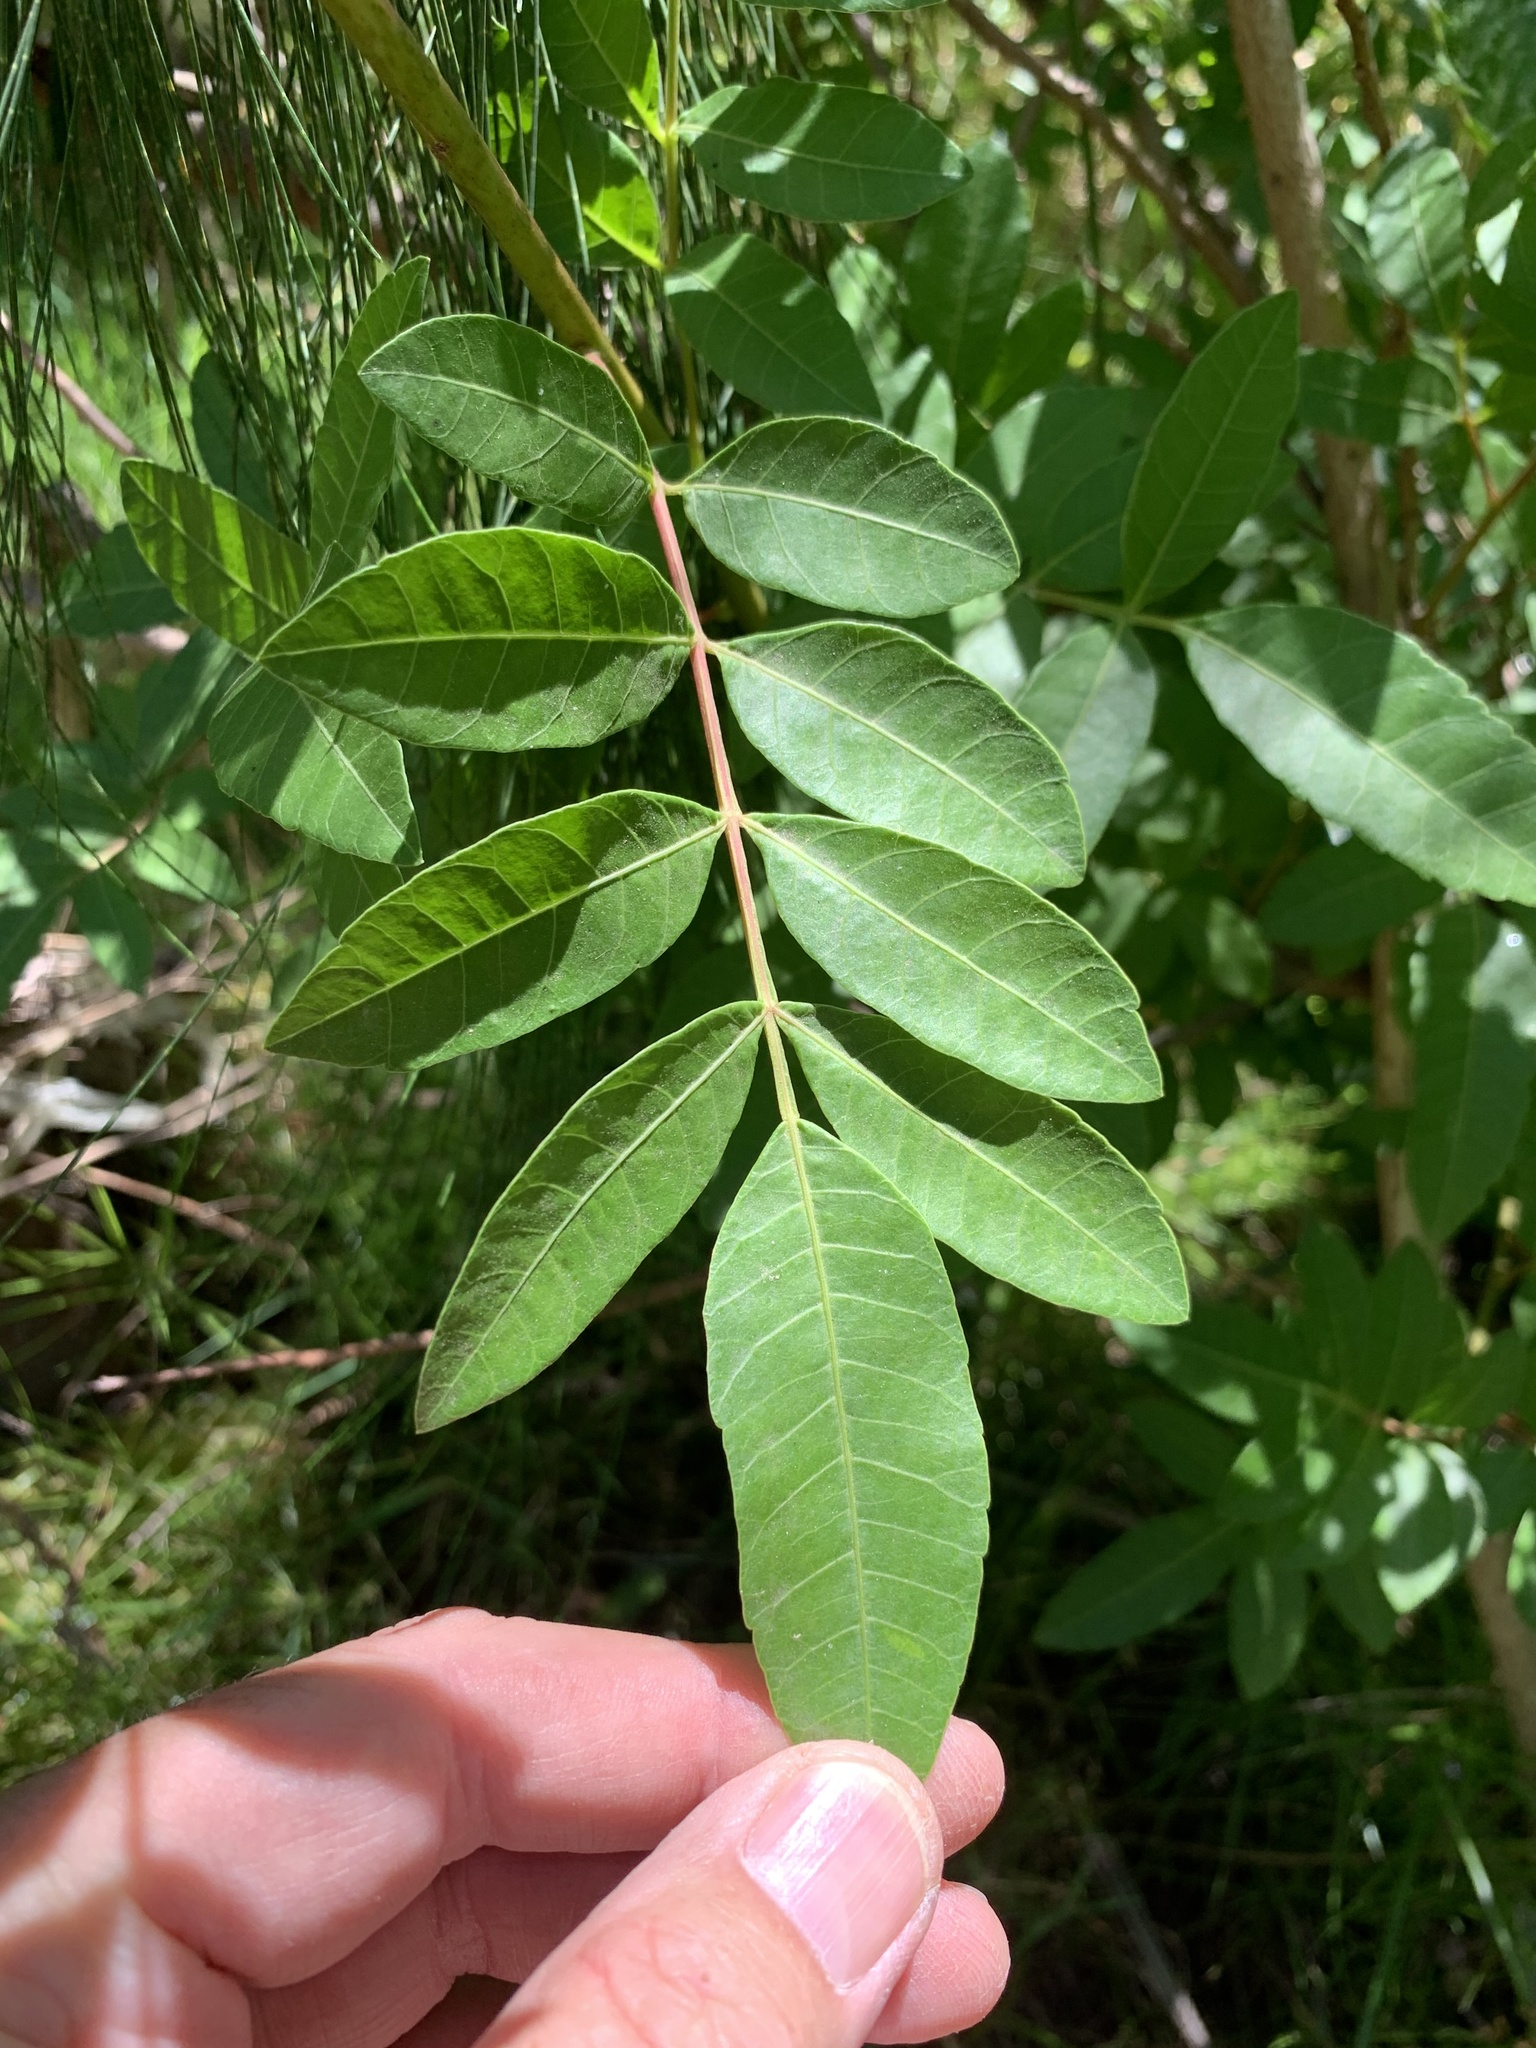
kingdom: Plantae
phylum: Tracheophyta
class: Magnoliopsida
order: Sapindales
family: Anacardiaceae
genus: Schinus
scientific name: Schinus terebinthifolia
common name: Brazilian peppertree
